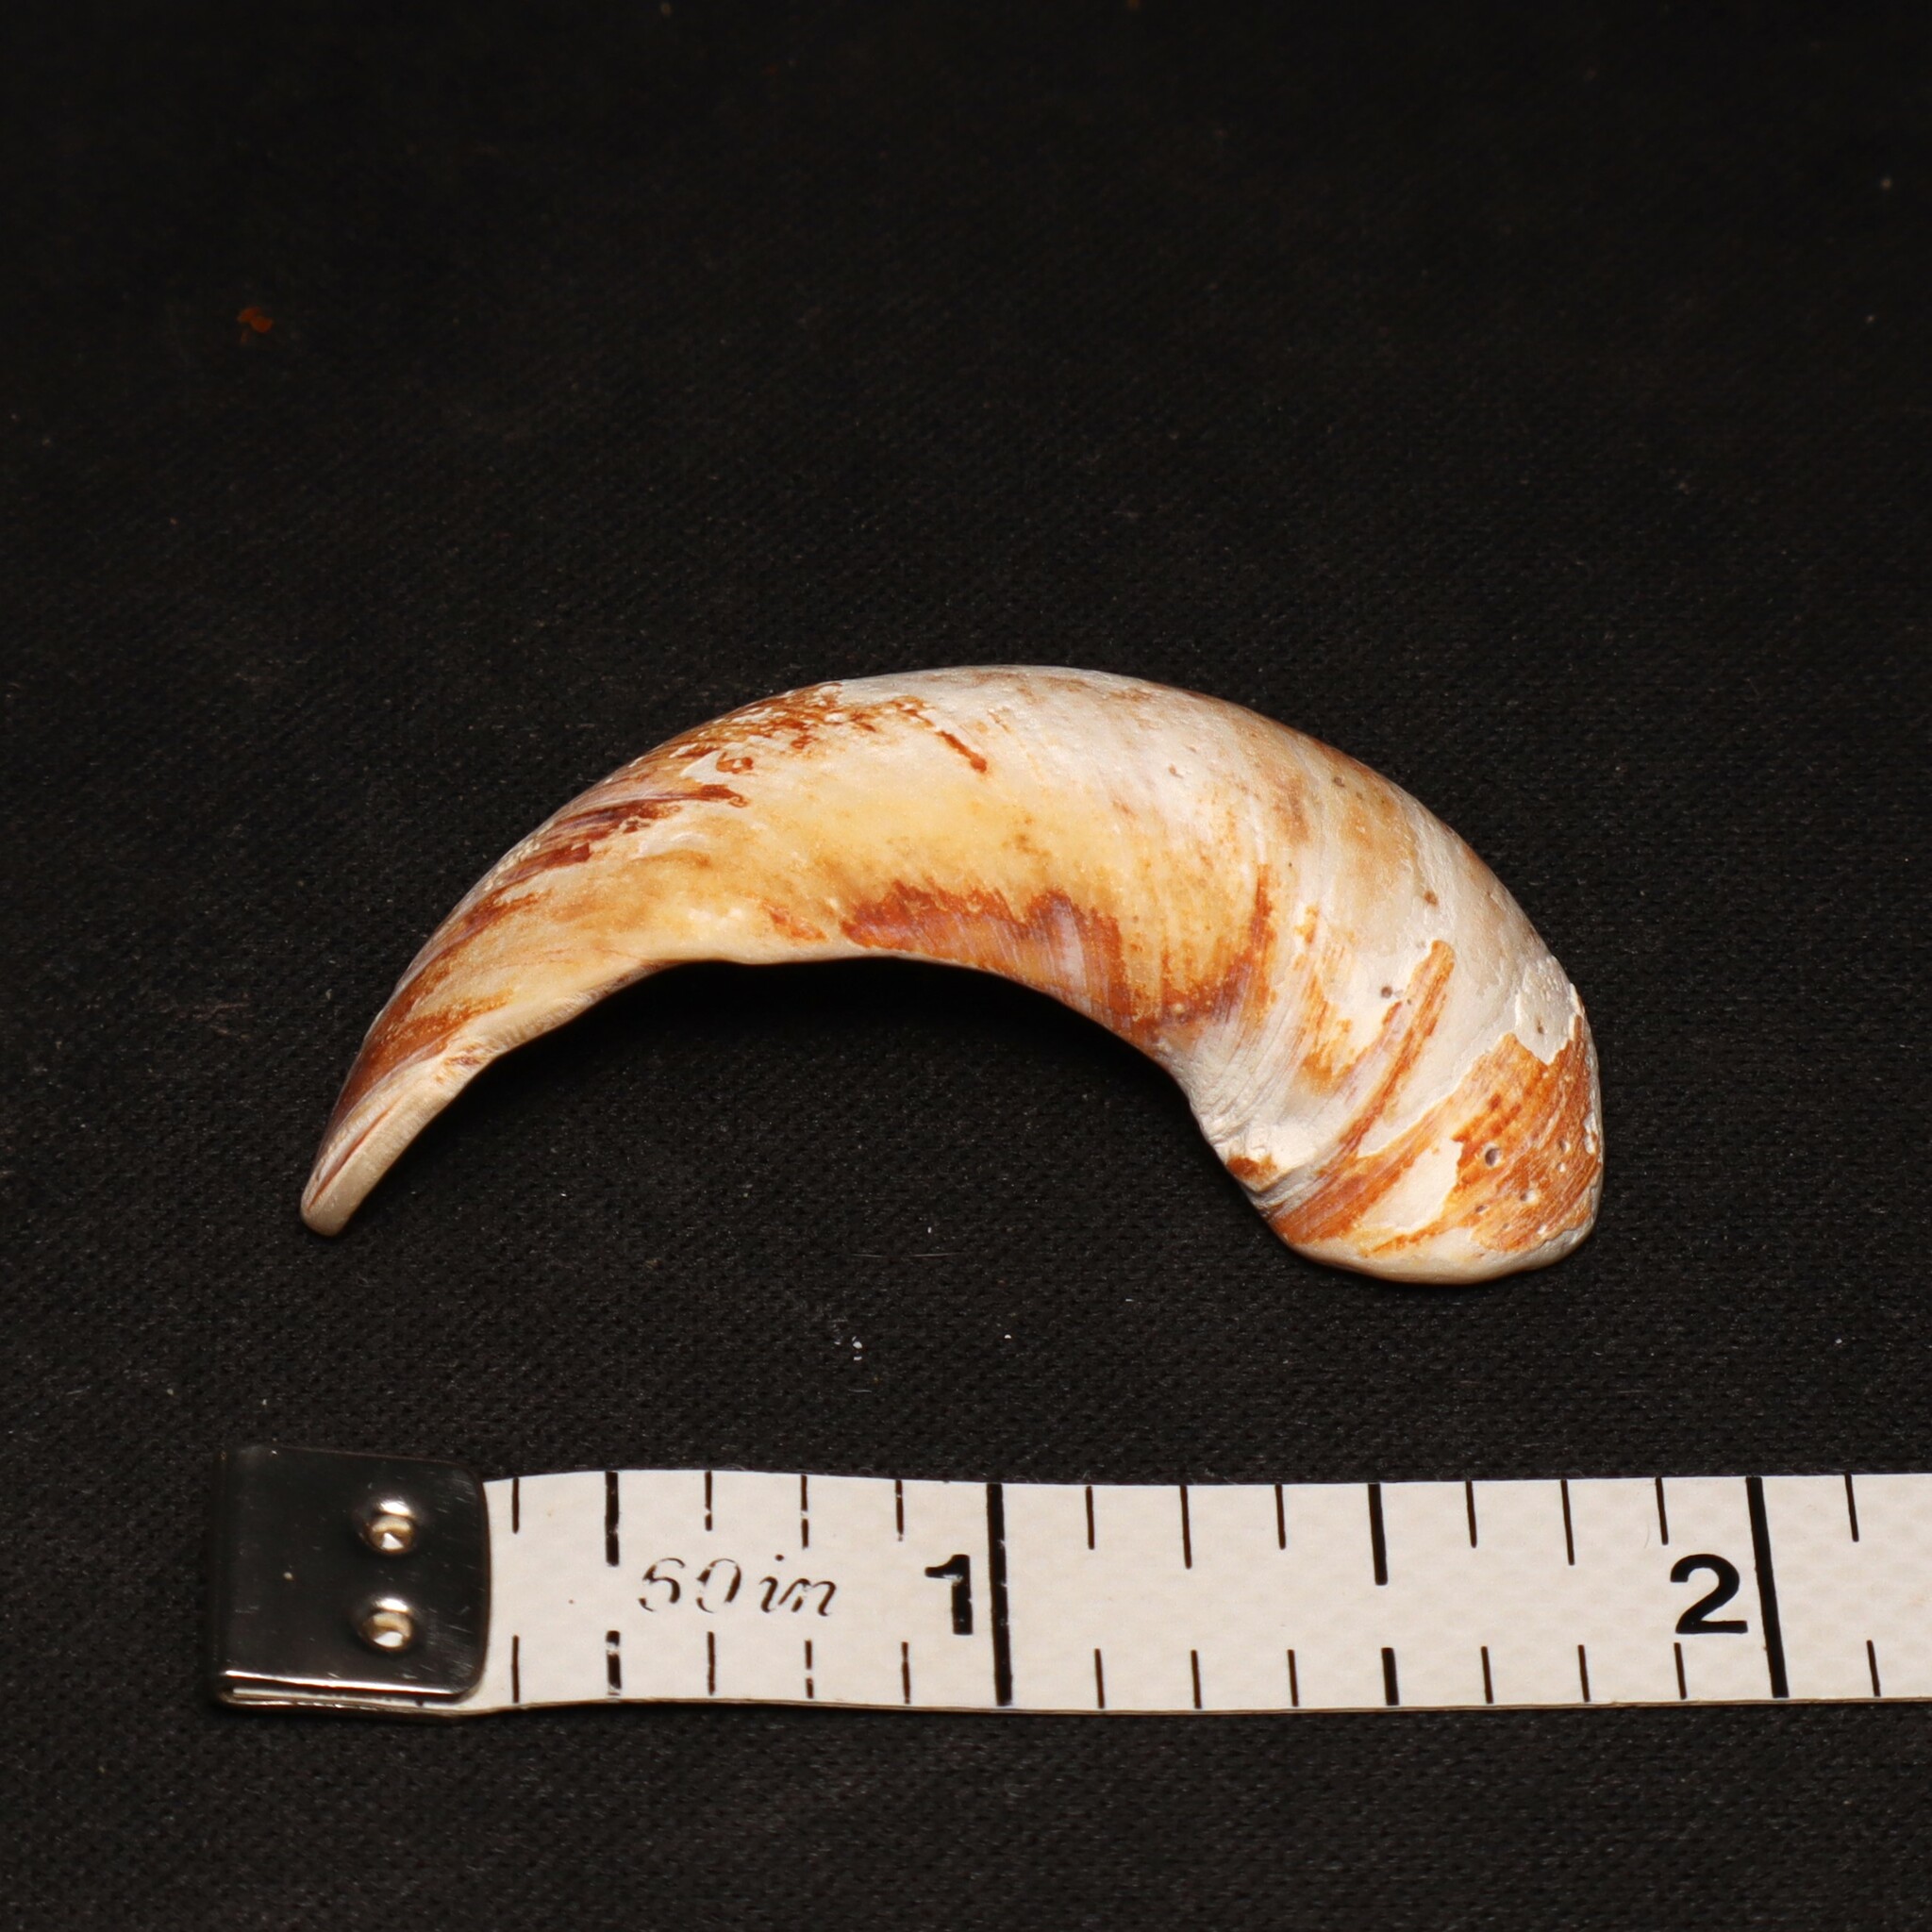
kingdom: Animalia
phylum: Mollusca
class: Gastropoda
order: Littorinimorpha
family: Naticidae
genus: Neverita
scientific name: Neverita duplicata
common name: Lobed moonsnail
